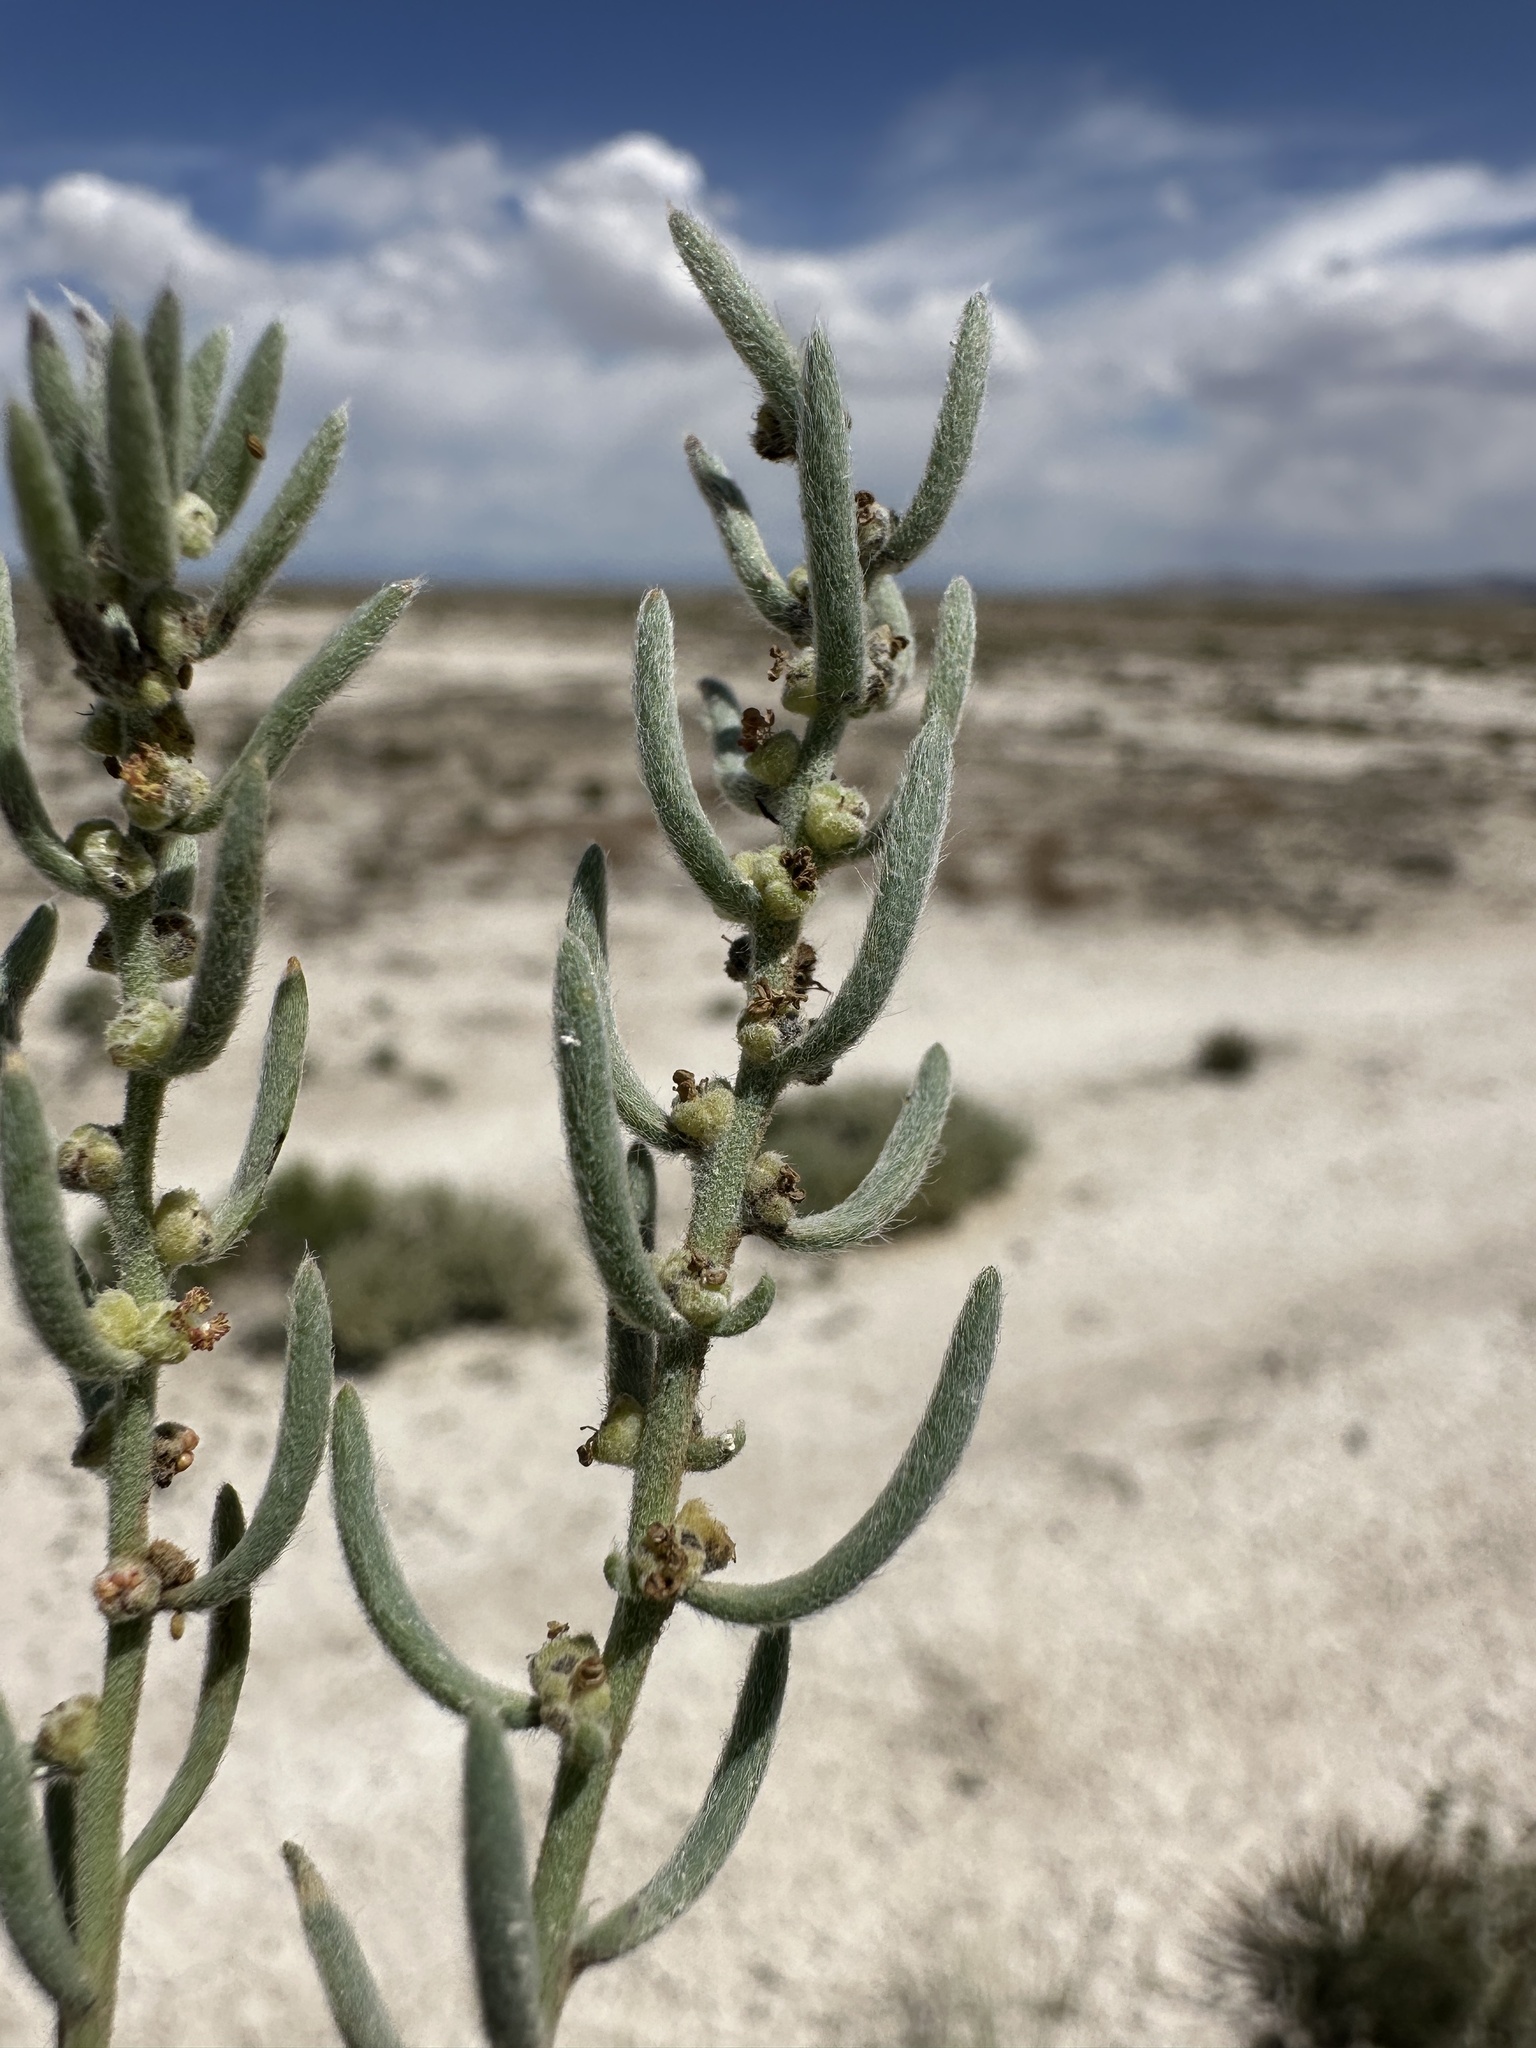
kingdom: Plantae
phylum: Tracheophyta
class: Magnoliopsida
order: Caryophyllales
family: Amaranthaceae
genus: Neokochia
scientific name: Neokochia americana
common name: Perennial summer-cypress
